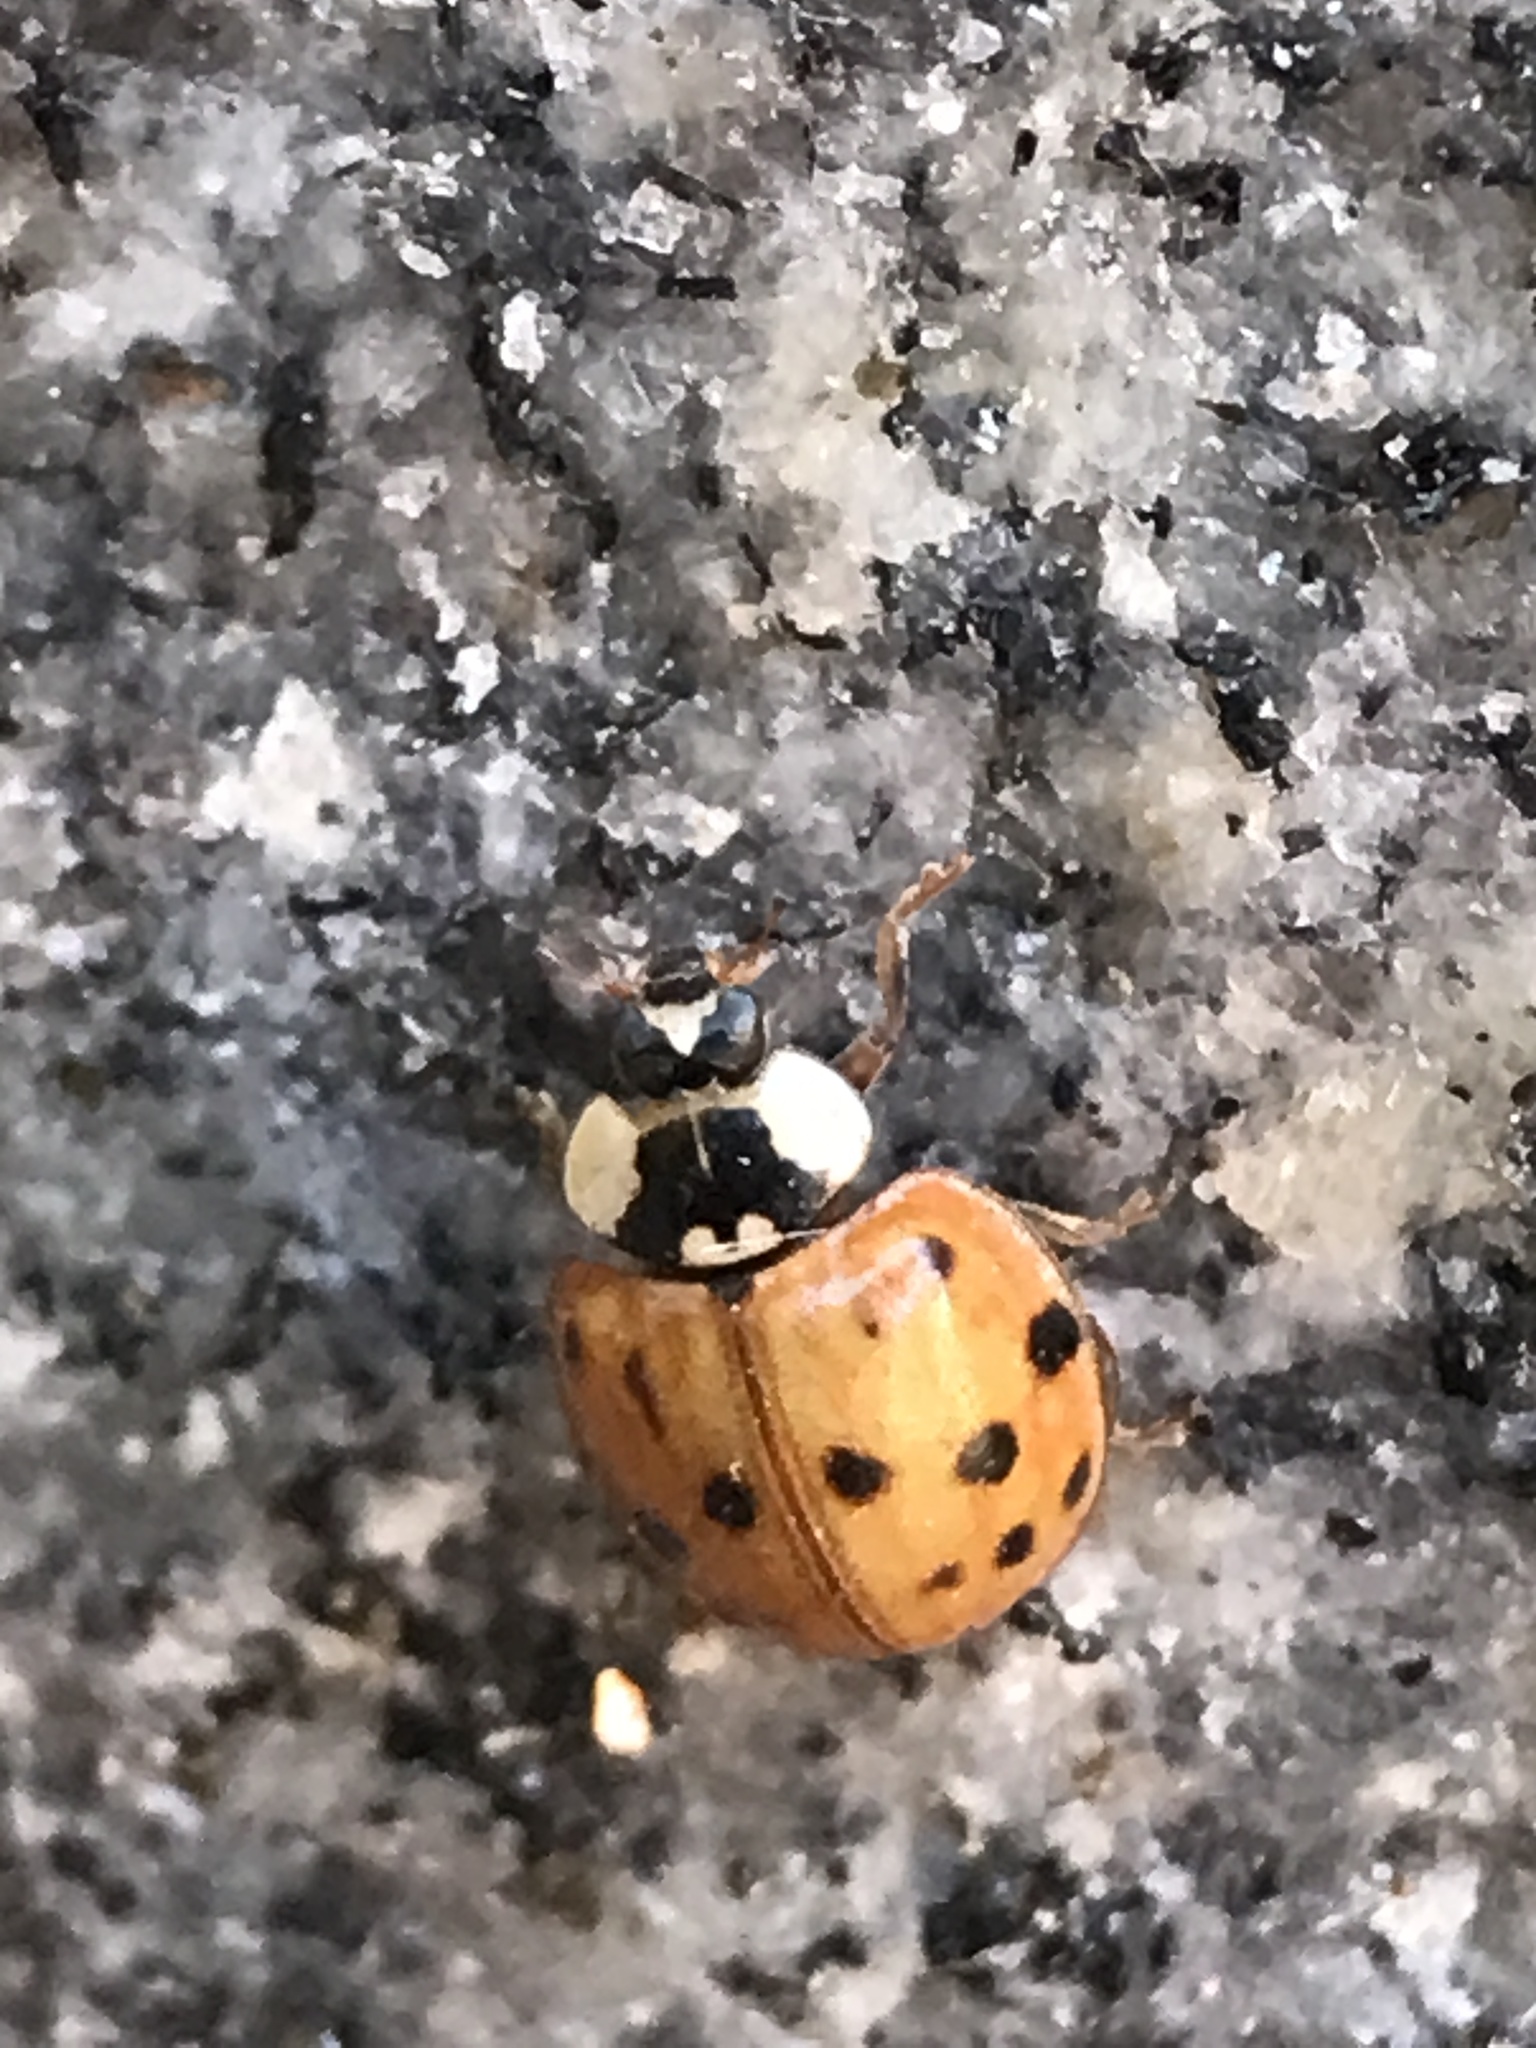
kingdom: Animalia
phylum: Arthropoda
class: Insecta
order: Coleoptera
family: Coccinellidae
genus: Harmonia
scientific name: Harmonia axyridis
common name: Harlequin ladybird
